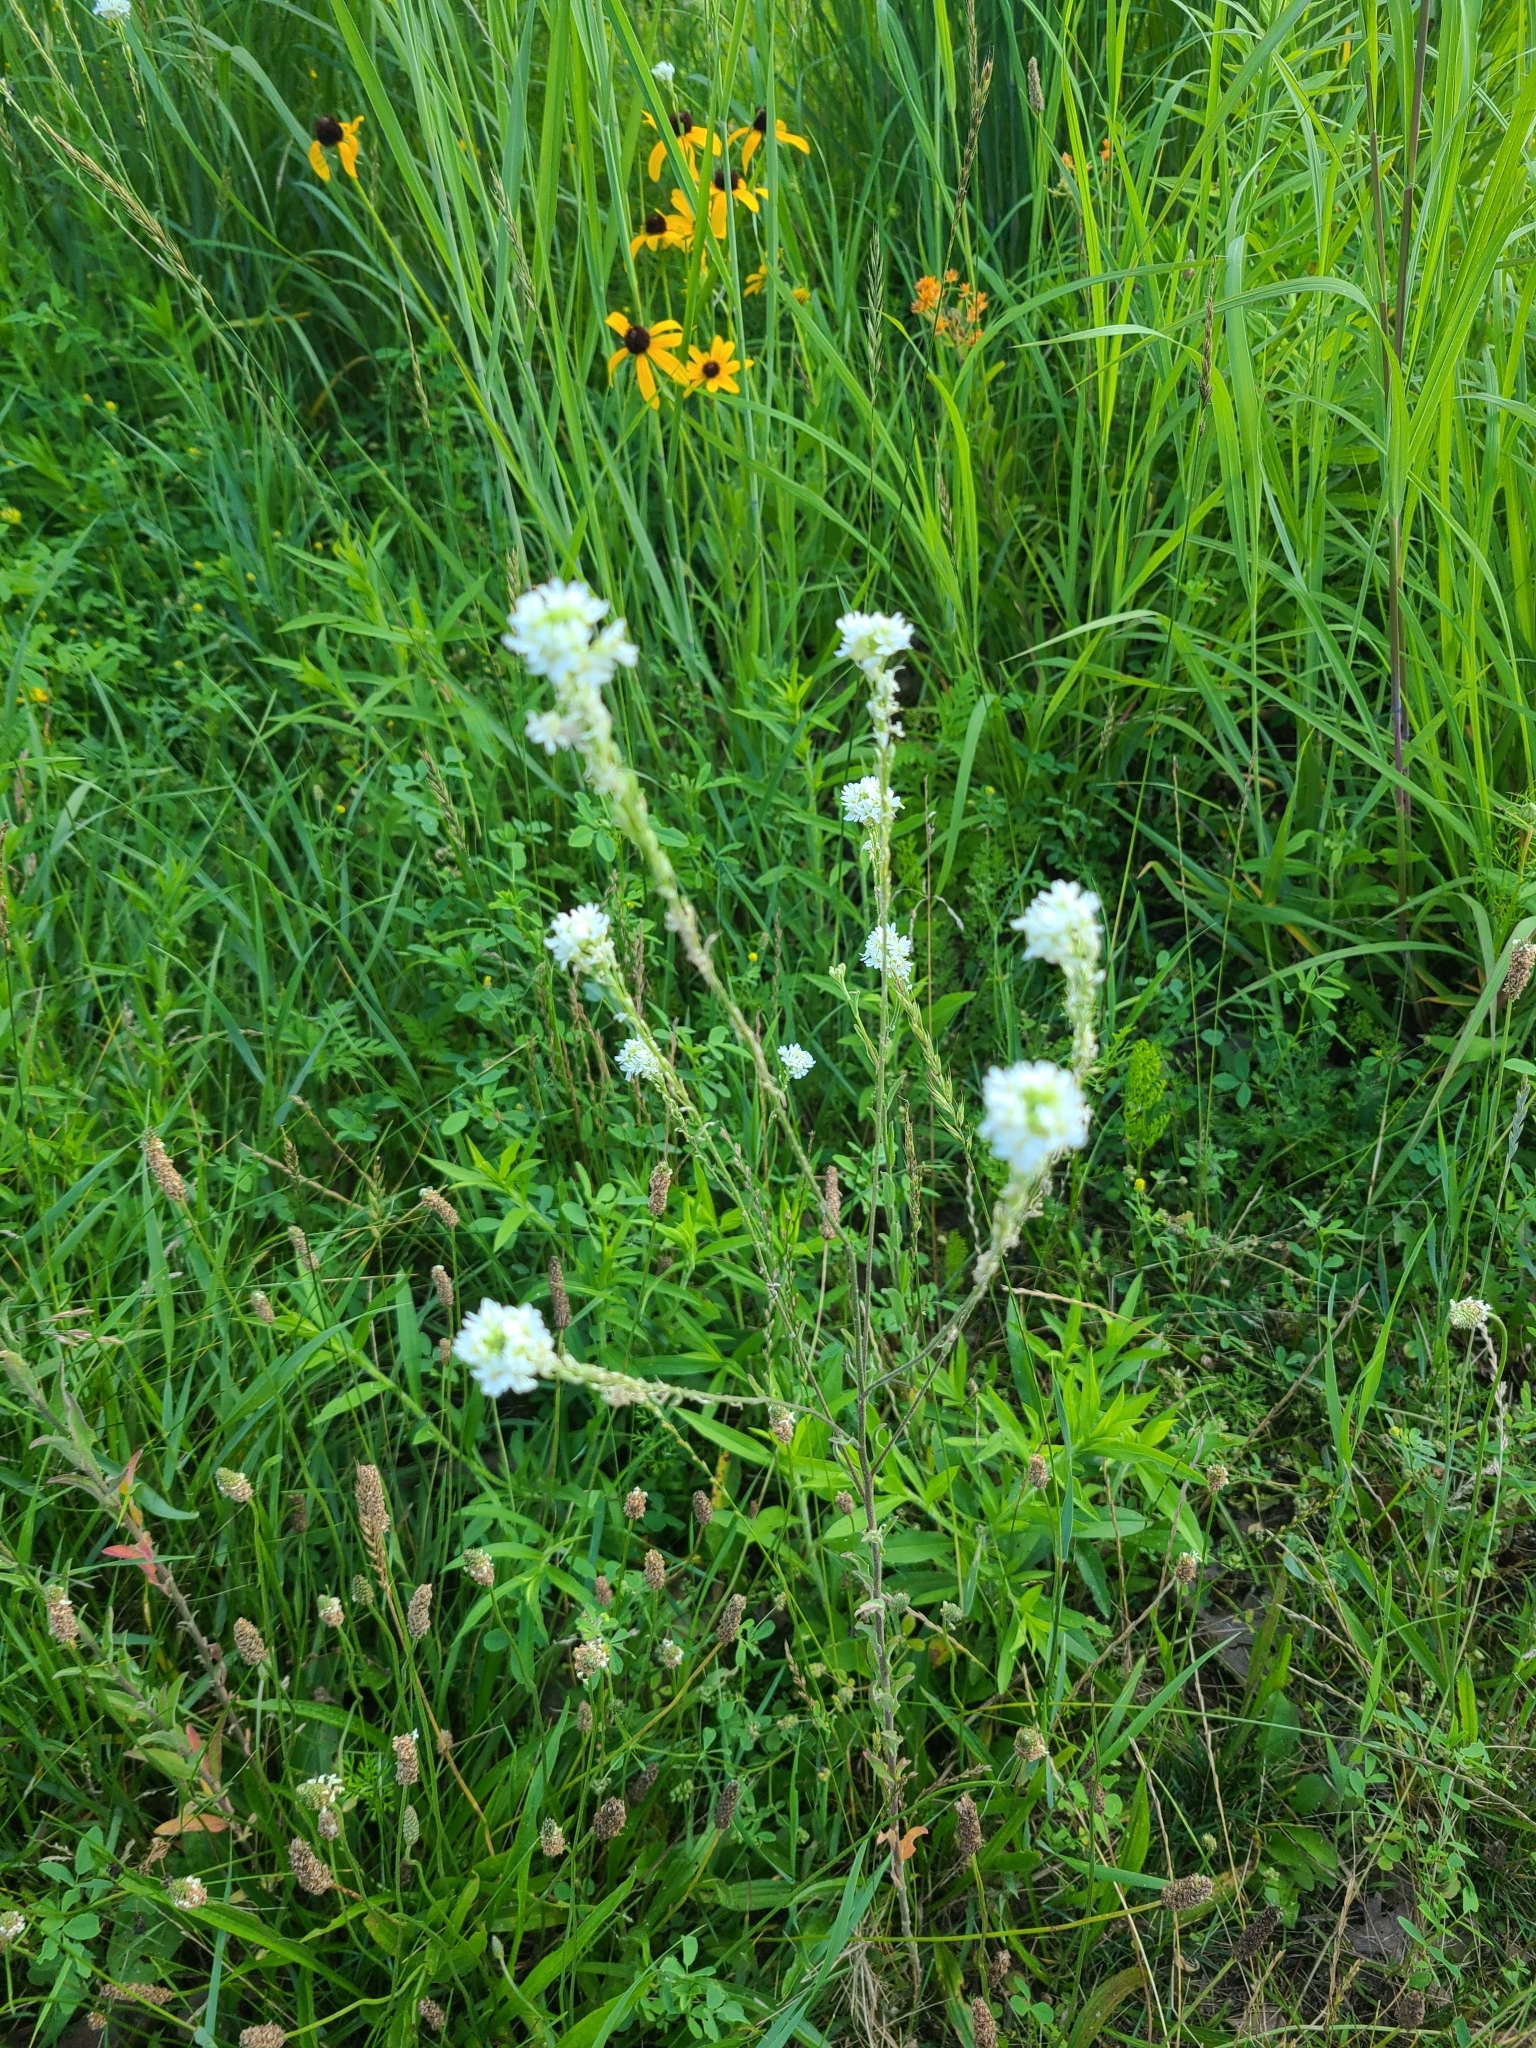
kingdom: Plantae
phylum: Tracheophyta
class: Magnoliopsida
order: Brassicales
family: Brassicaceae
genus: Berteroa
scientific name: Berteroa incana
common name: Hoary alison
